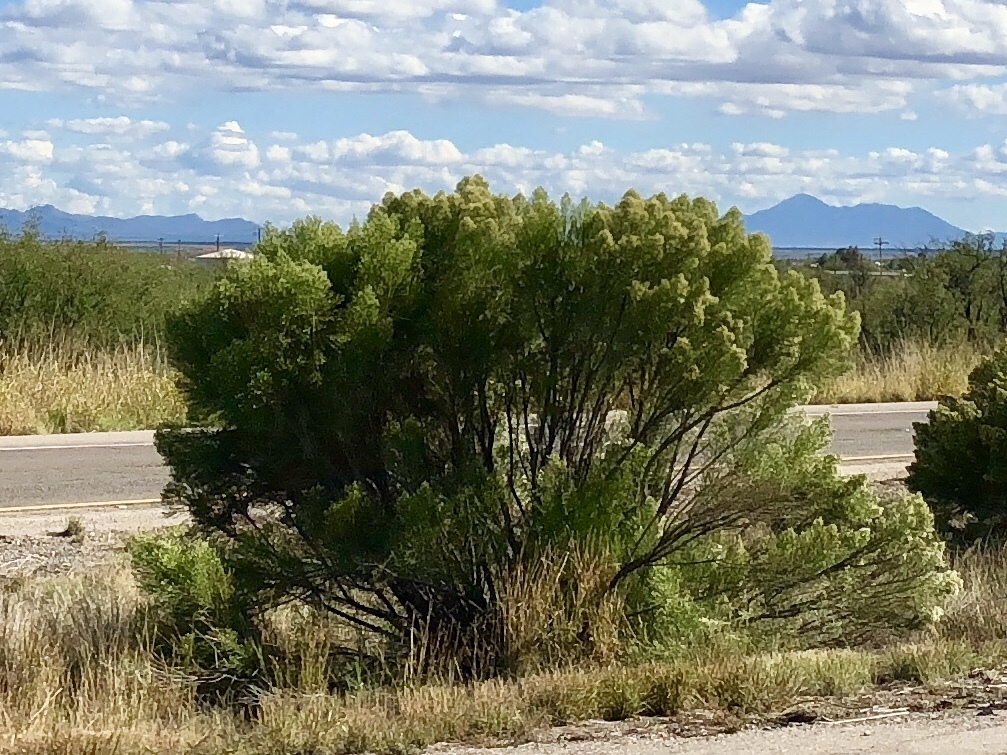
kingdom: Plantae
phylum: Tracheophyta
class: Magnoliopsida
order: Asterales
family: Asteraceae
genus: Baccharis
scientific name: Baccharis sarothroides
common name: Desert-broom
